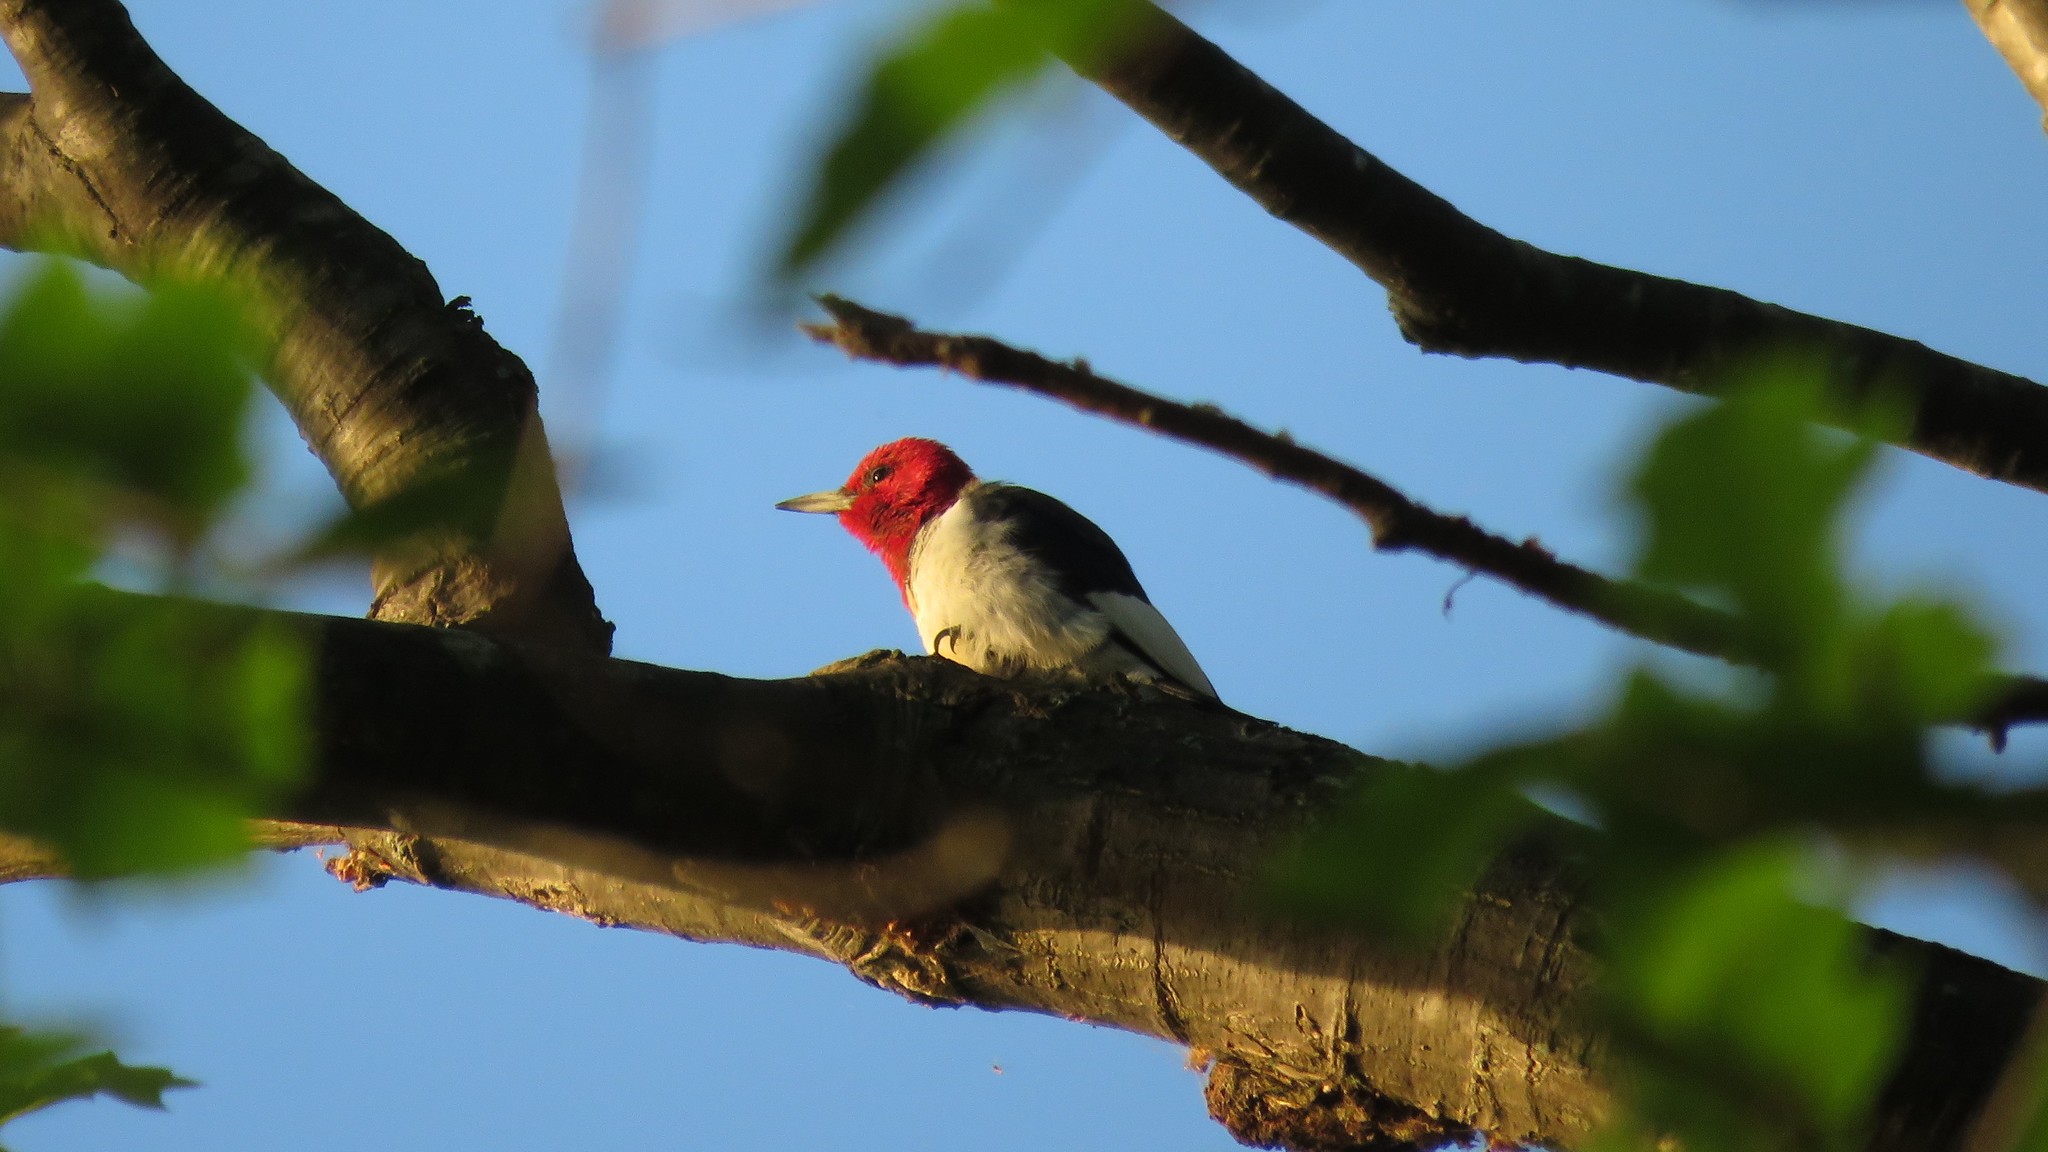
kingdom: Animalia
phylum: Chordata
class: Aves
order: Piciformes
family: Picidae
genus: Melanerpes
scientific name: Melanerpes erythrocephalus
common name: Red-headed woodpecker
